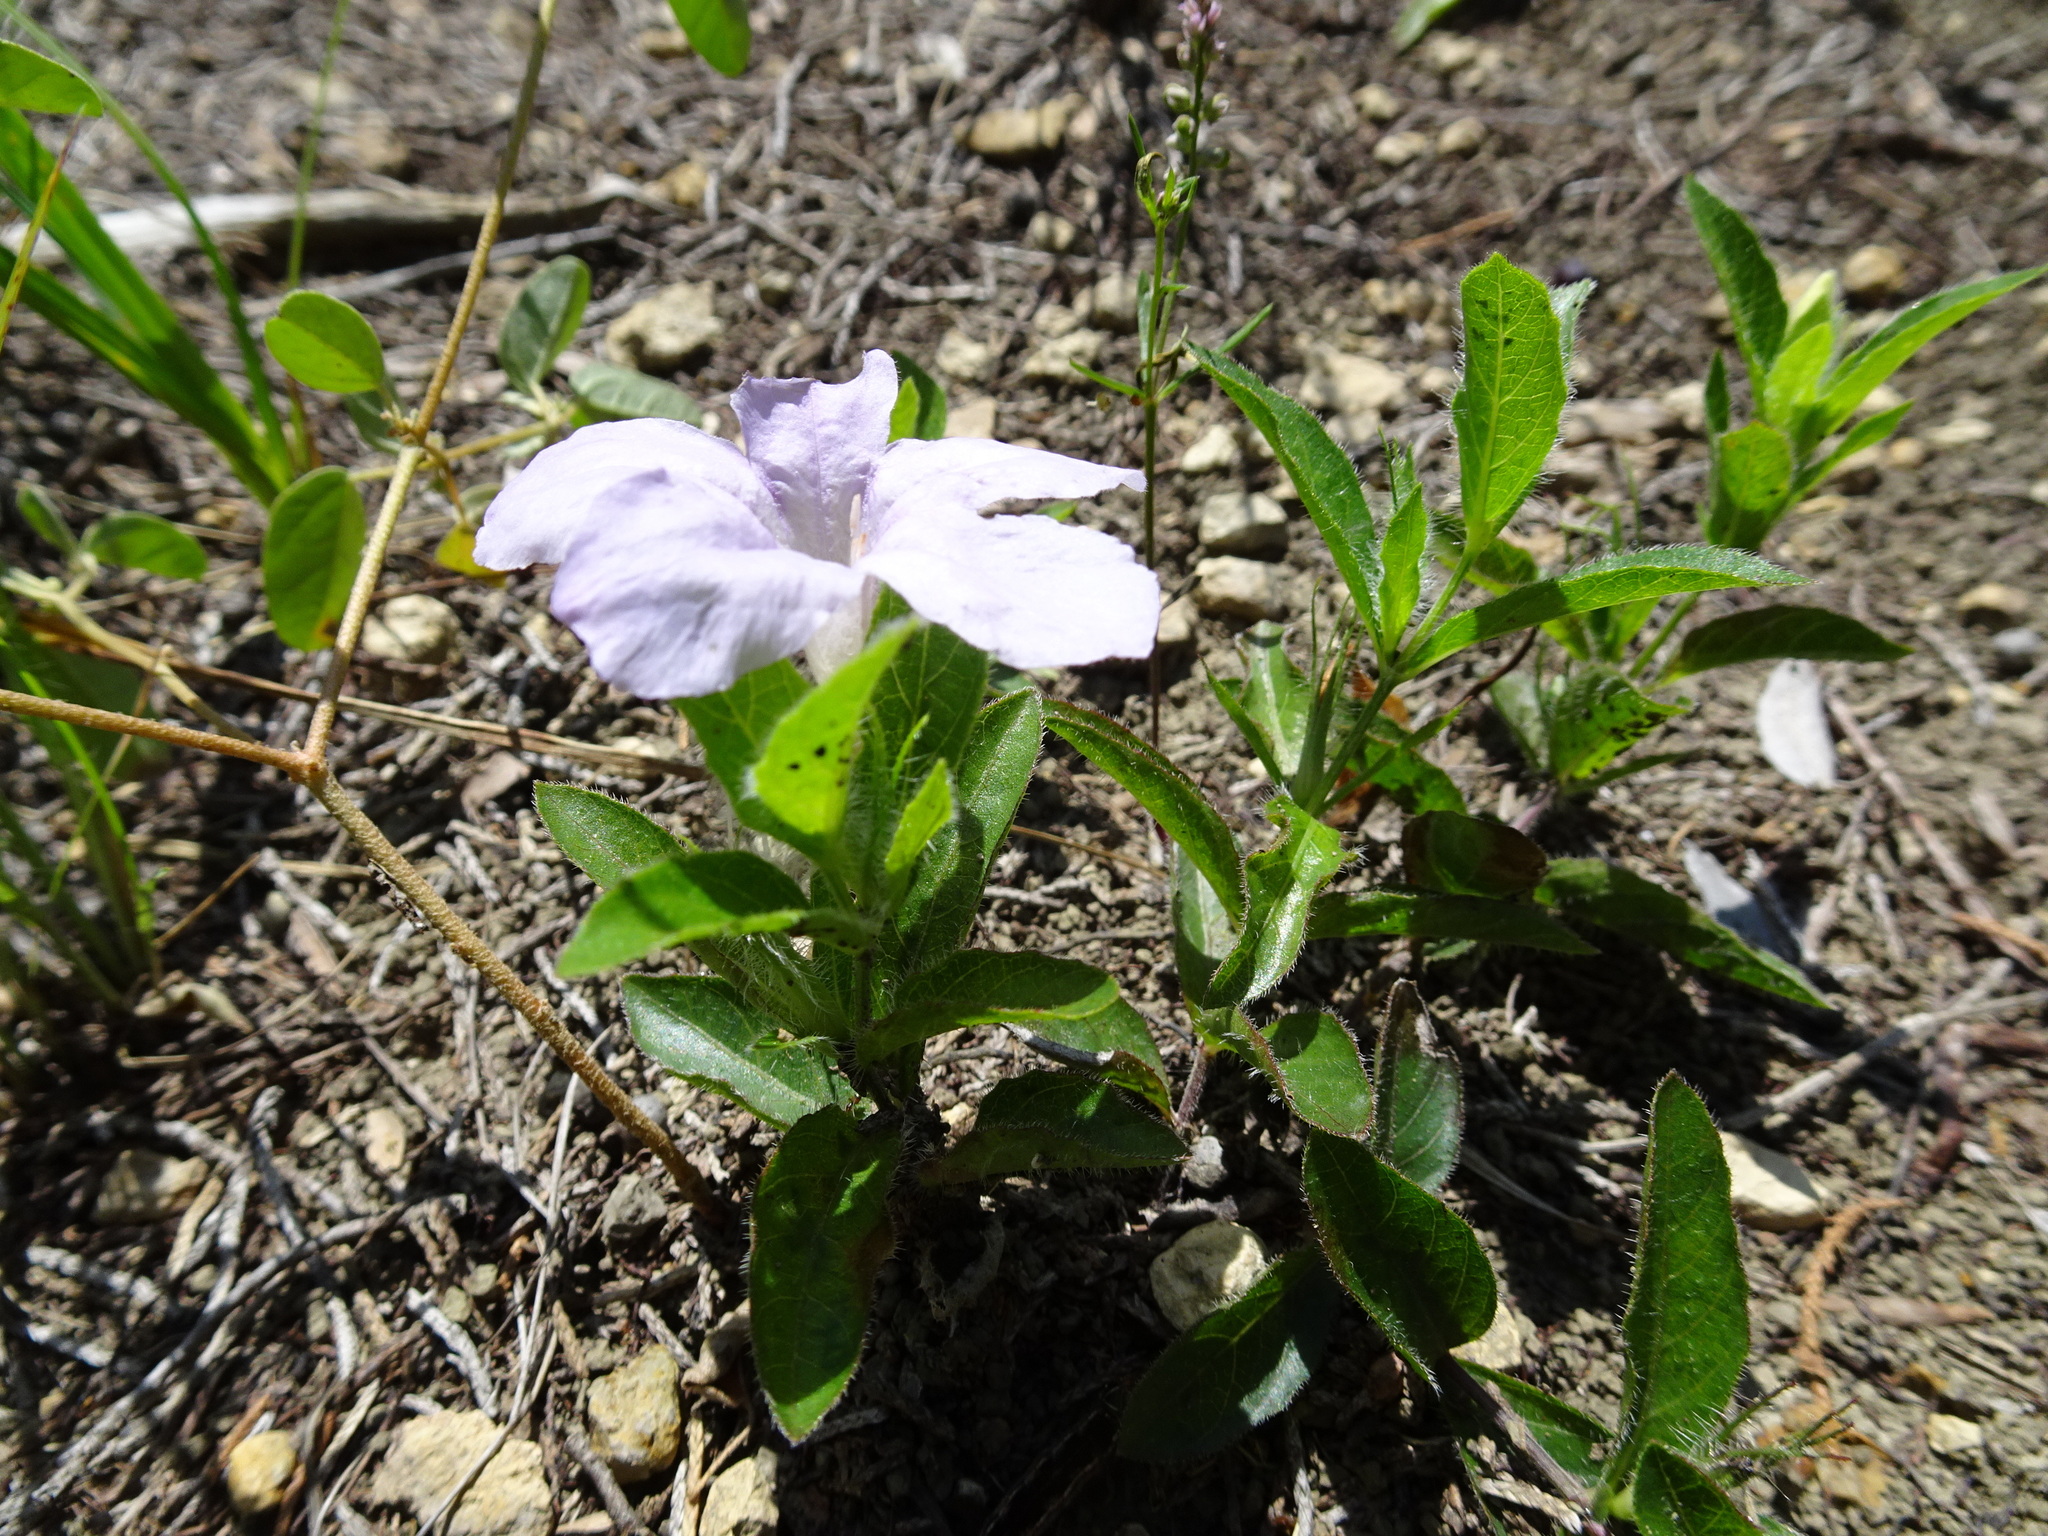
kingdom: Plantae
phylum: Tracheophyta
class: Magnoliopsida
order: Lamiales
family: Acanthaceae
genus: Ruellia
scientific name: Ruellia humilis
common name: Fringe-leaf ruellia
